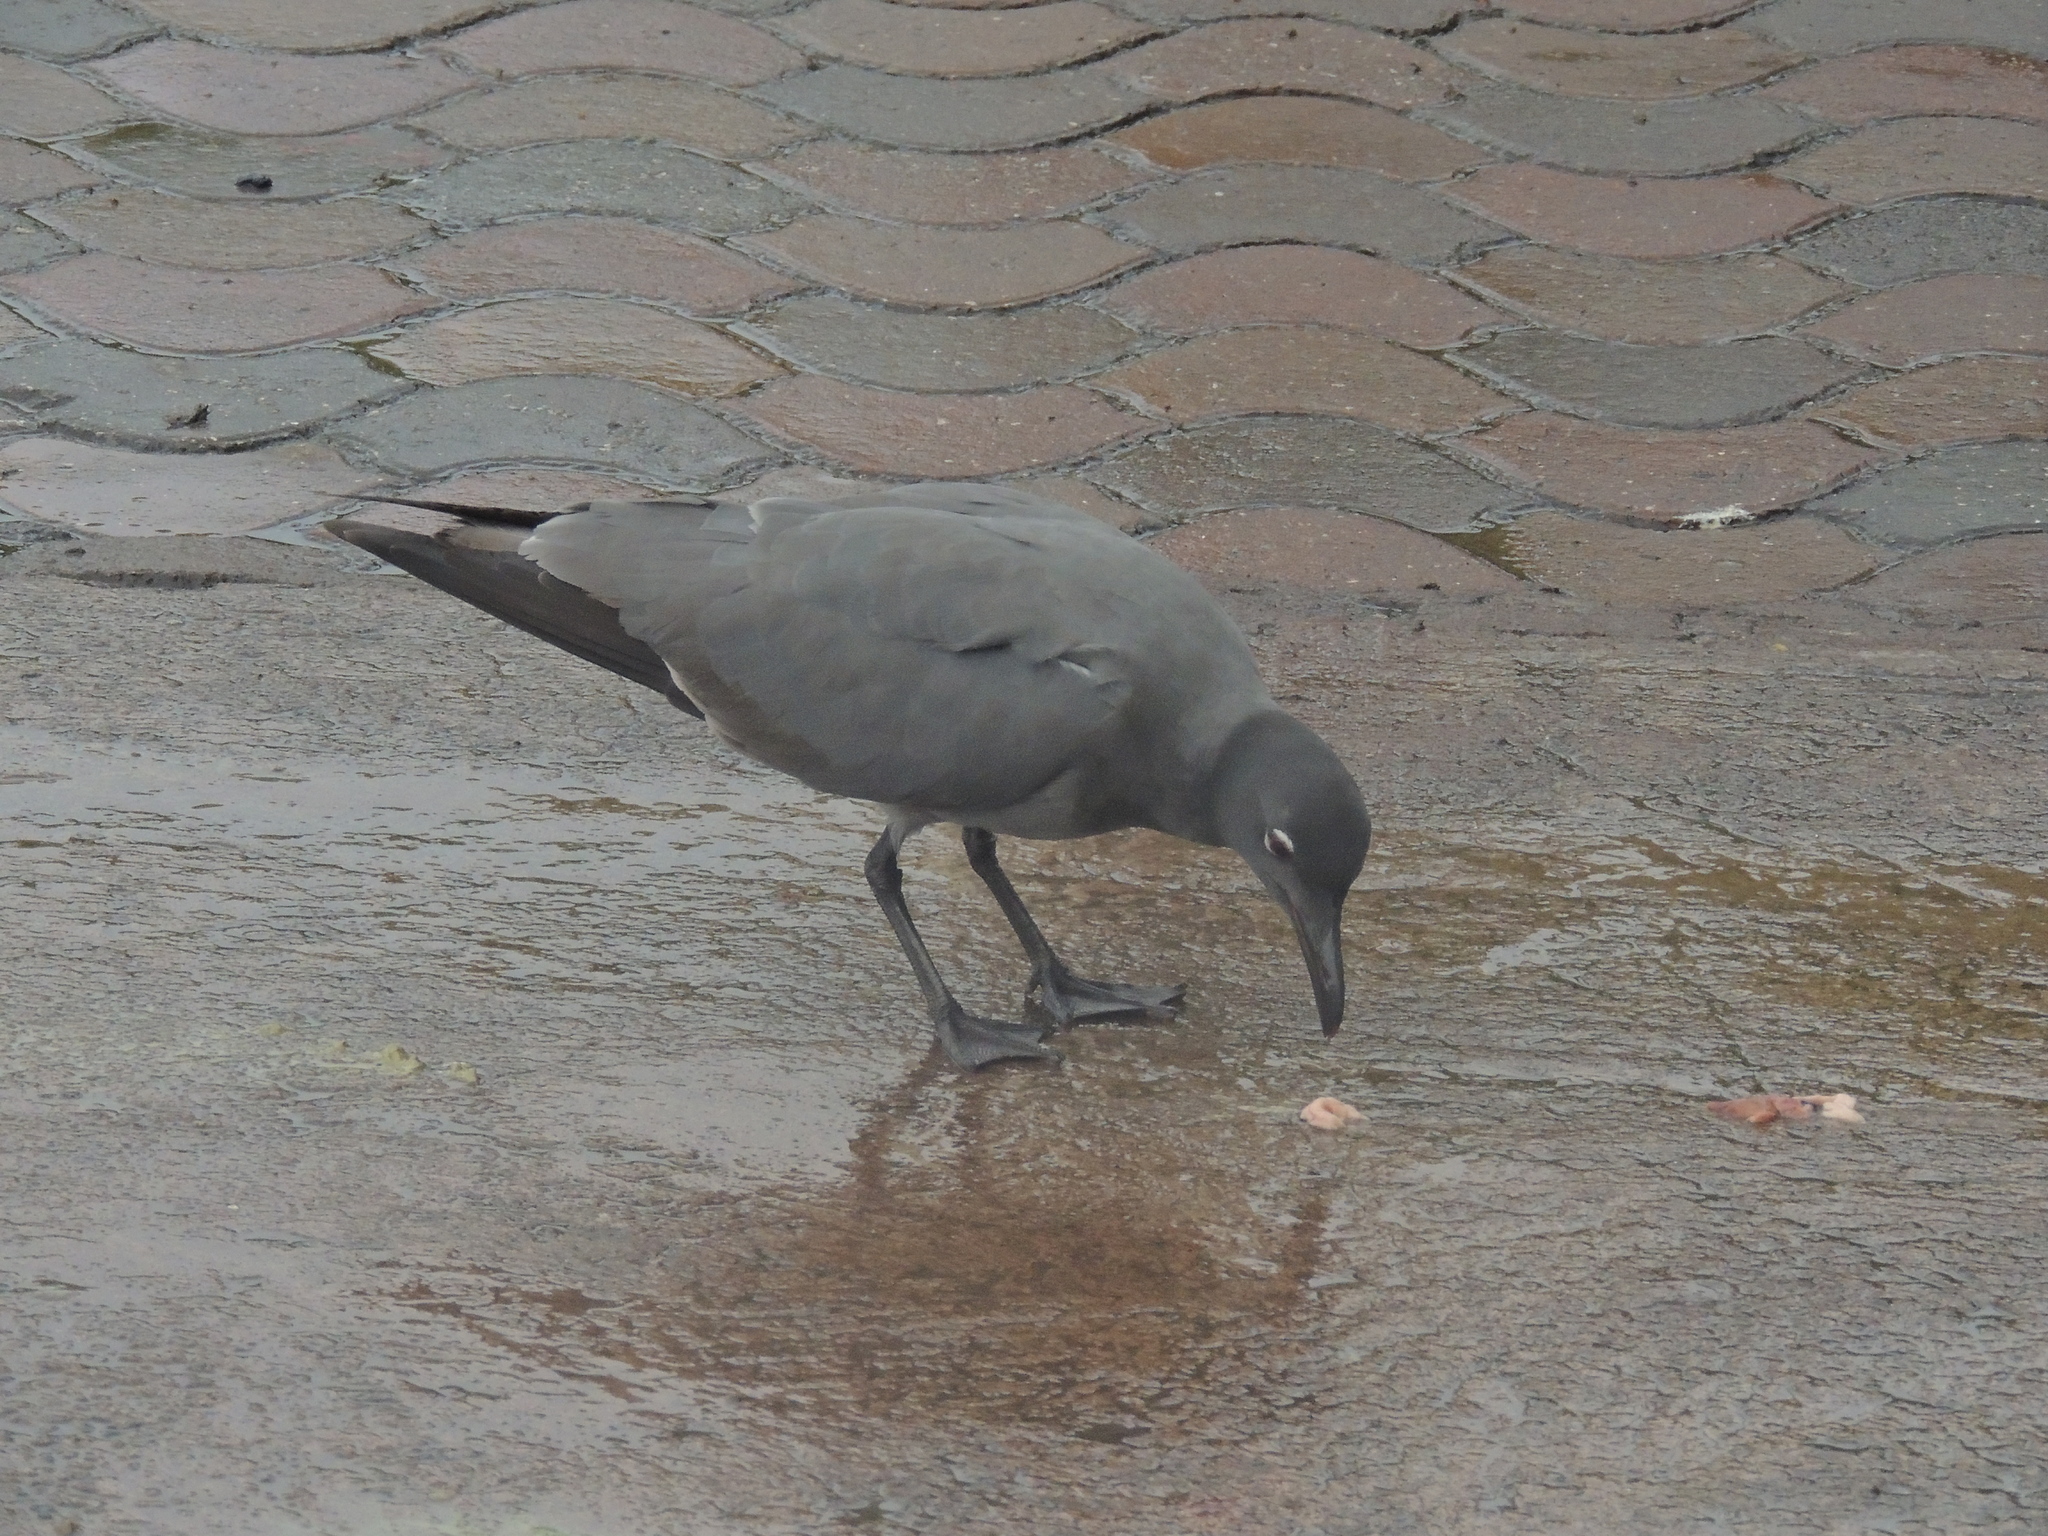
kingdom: Animalia
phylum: Chordata
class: Aves
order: Charadriiformes
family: Laridae
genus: Leucophaeus
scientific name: Leucophaeus fuliginosus
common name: Lava gull
